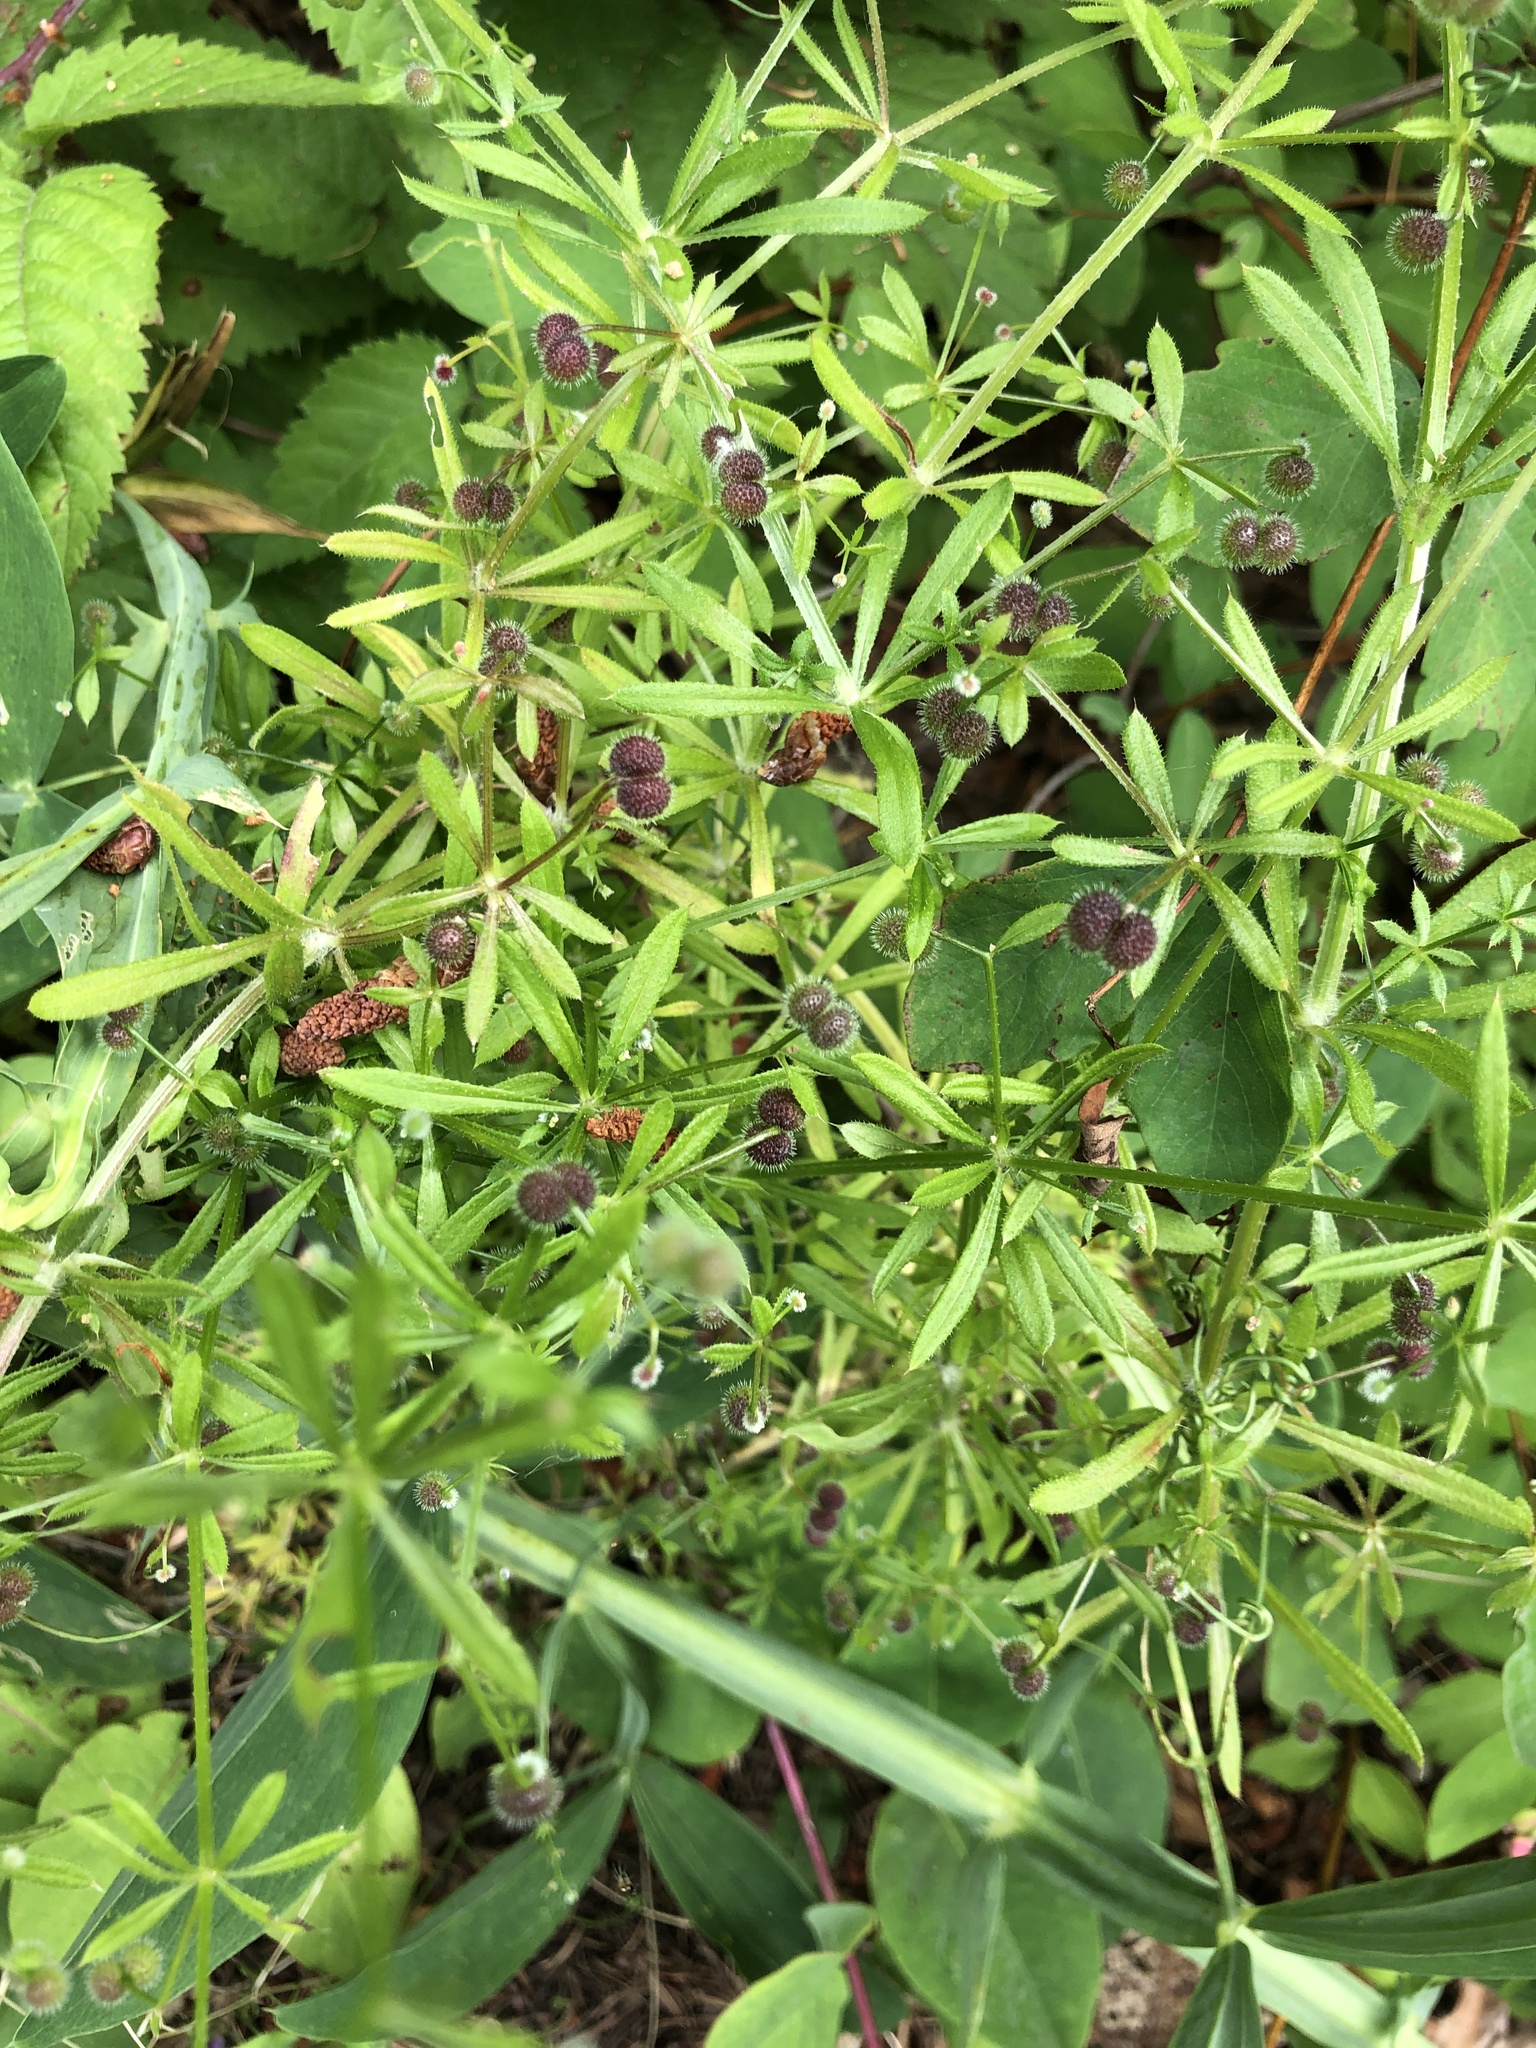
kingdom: Plantae
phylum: Tracheophyta
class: Magnoliopsida
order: Gentianales
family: Rubiaceae
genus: Galium
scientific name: Galium aparine
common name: Cleavers
